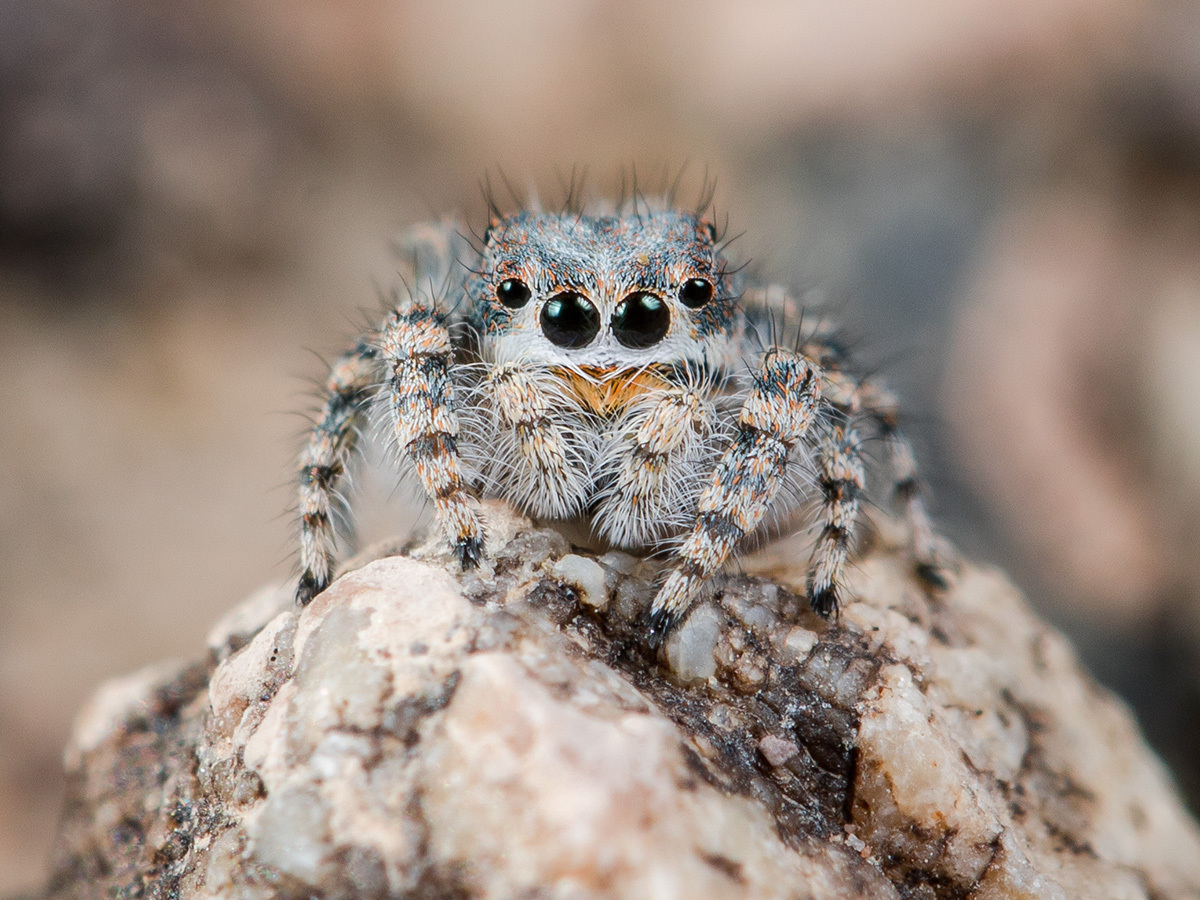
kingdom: Animalia
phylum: Arthropoda
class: Arachnida
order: Araneae
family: Salticidae
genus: Yllenus
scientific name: Yllenus zyuzini
